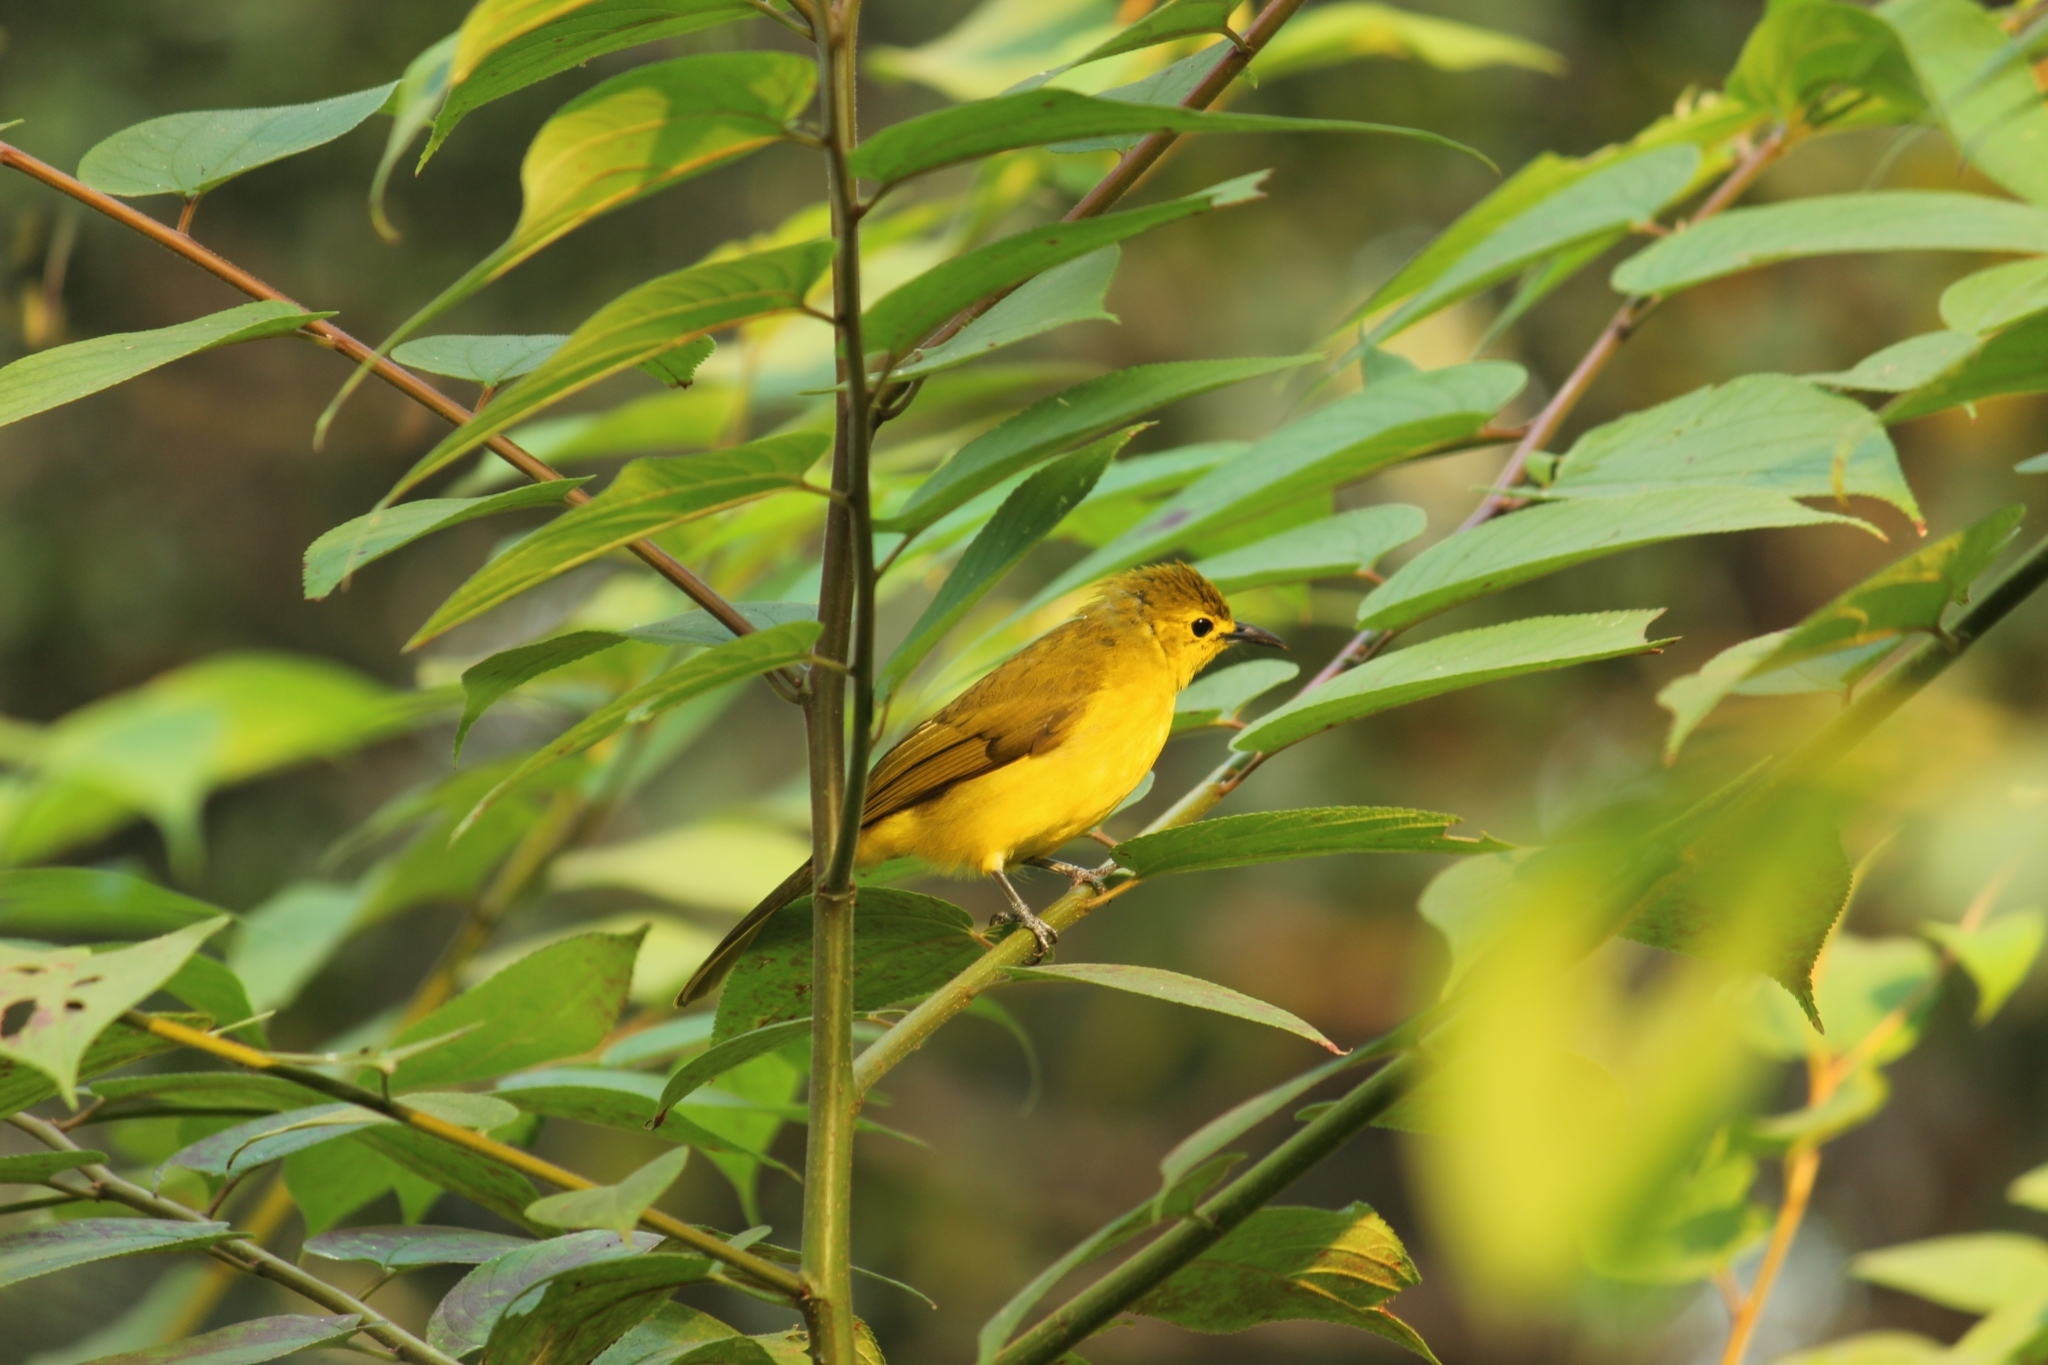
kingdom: Animalia
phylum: Chordata
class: Aves
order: Passeriformes
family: Pycnonotidae
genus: Acritillas
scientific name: Acritillas indica
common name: Yellow-browed bulbul
